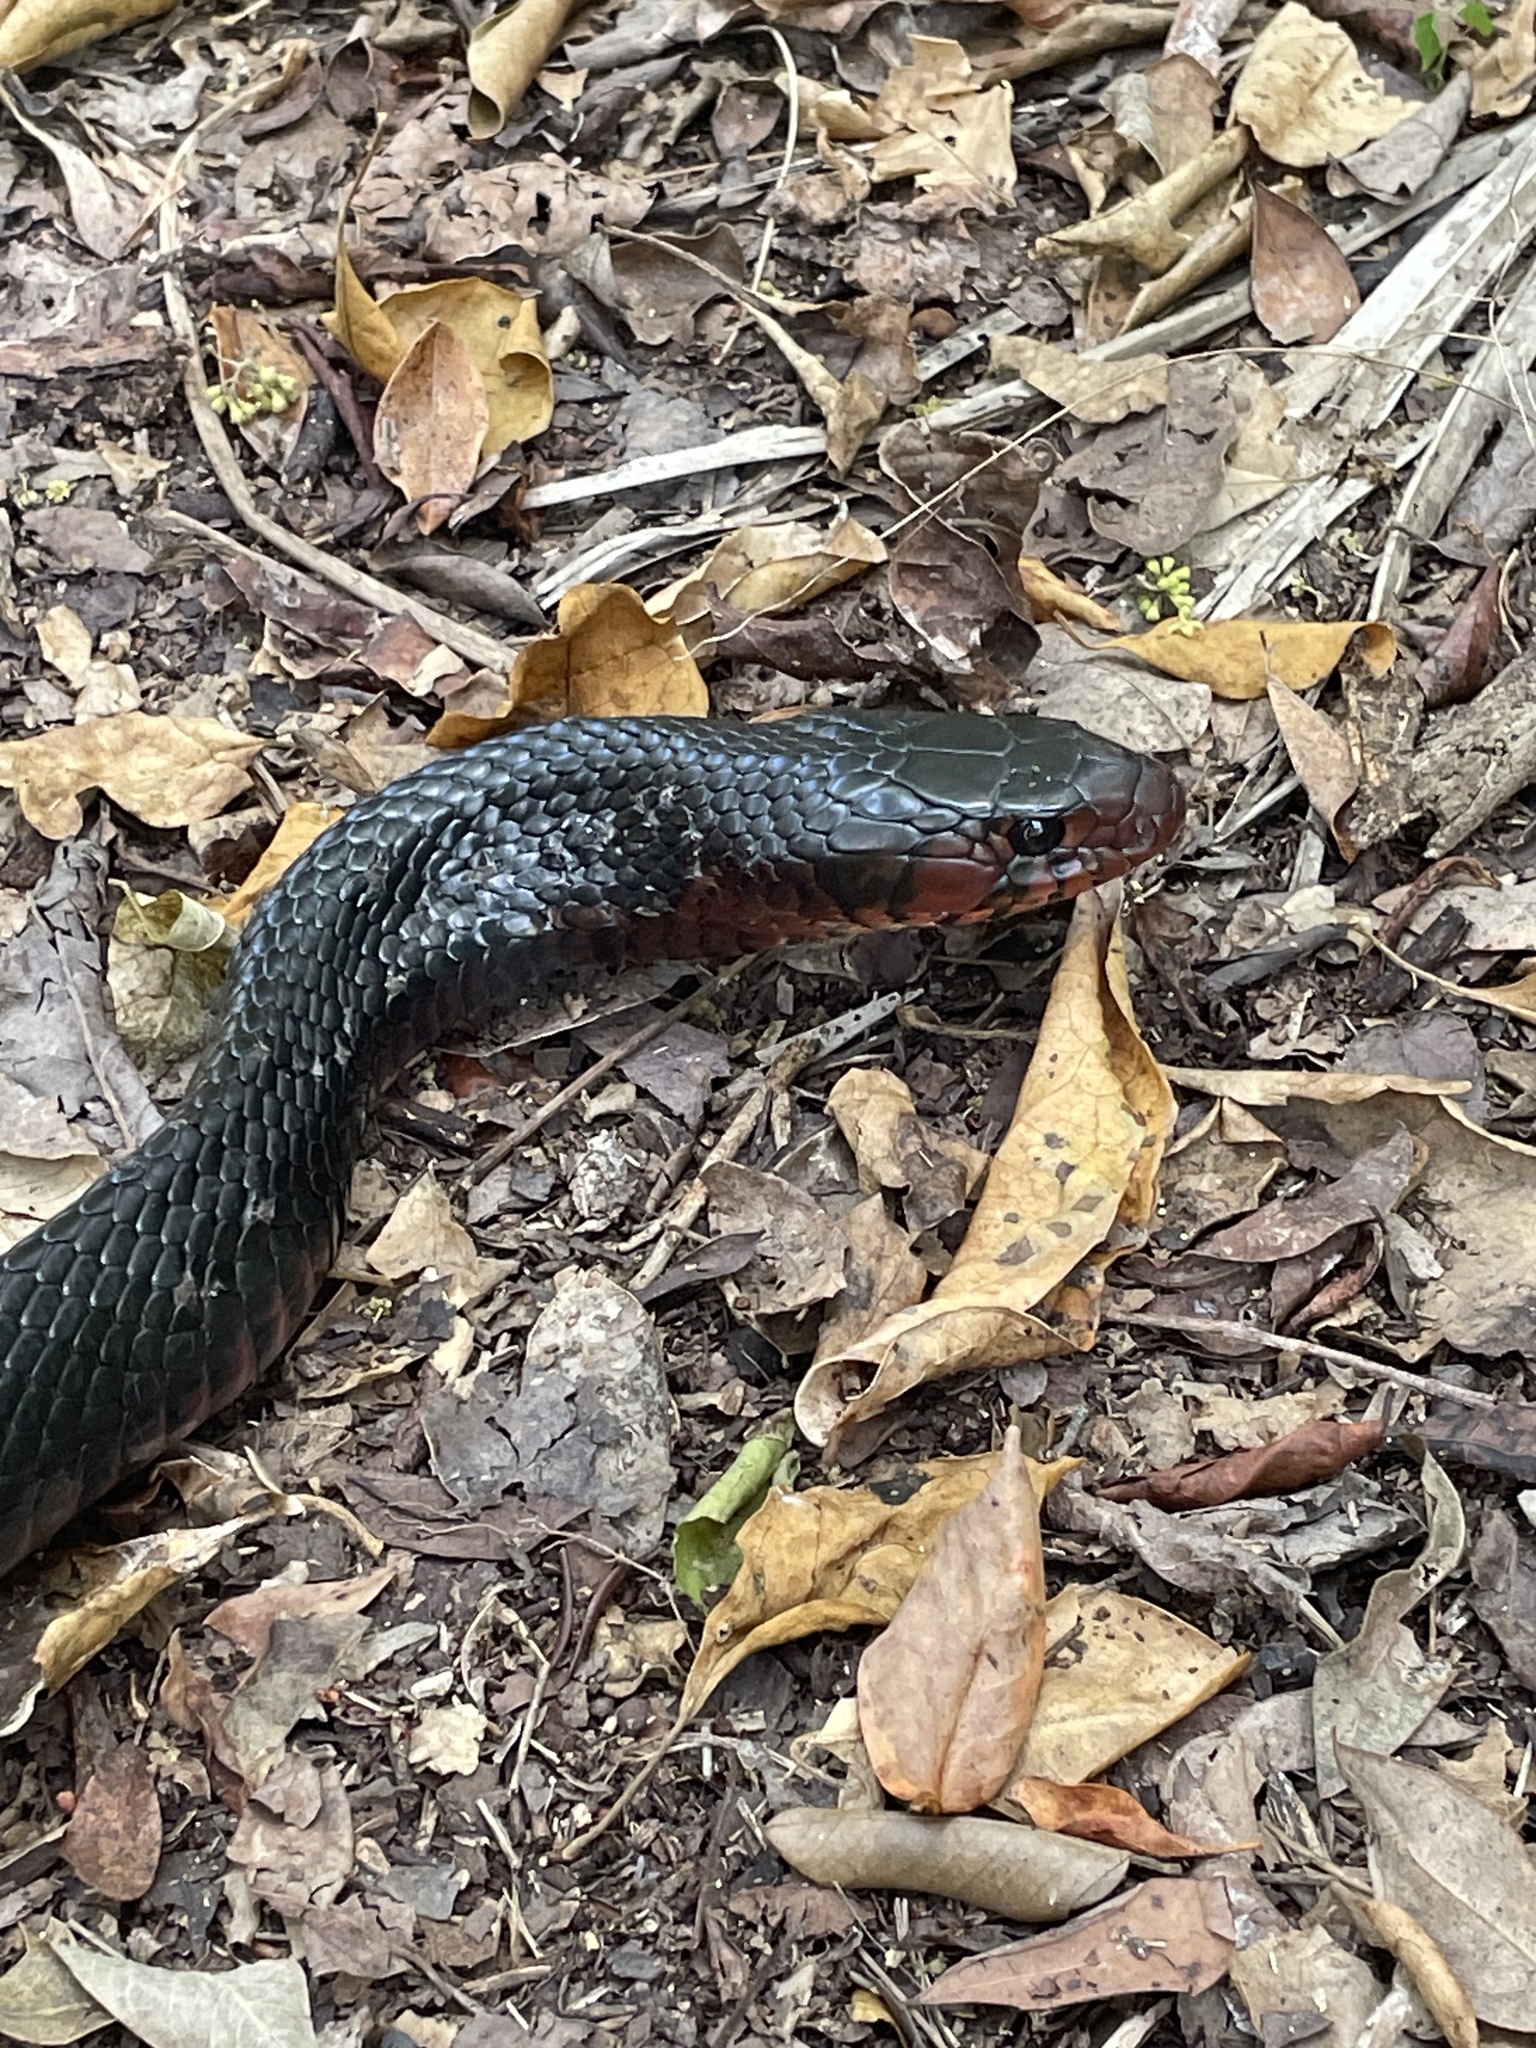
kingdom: Animalia
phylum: Chordata
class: Squamata
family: Colubridae
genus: Drymarchon
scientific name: Drymarchon couperi
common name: Eastern indigo snake
